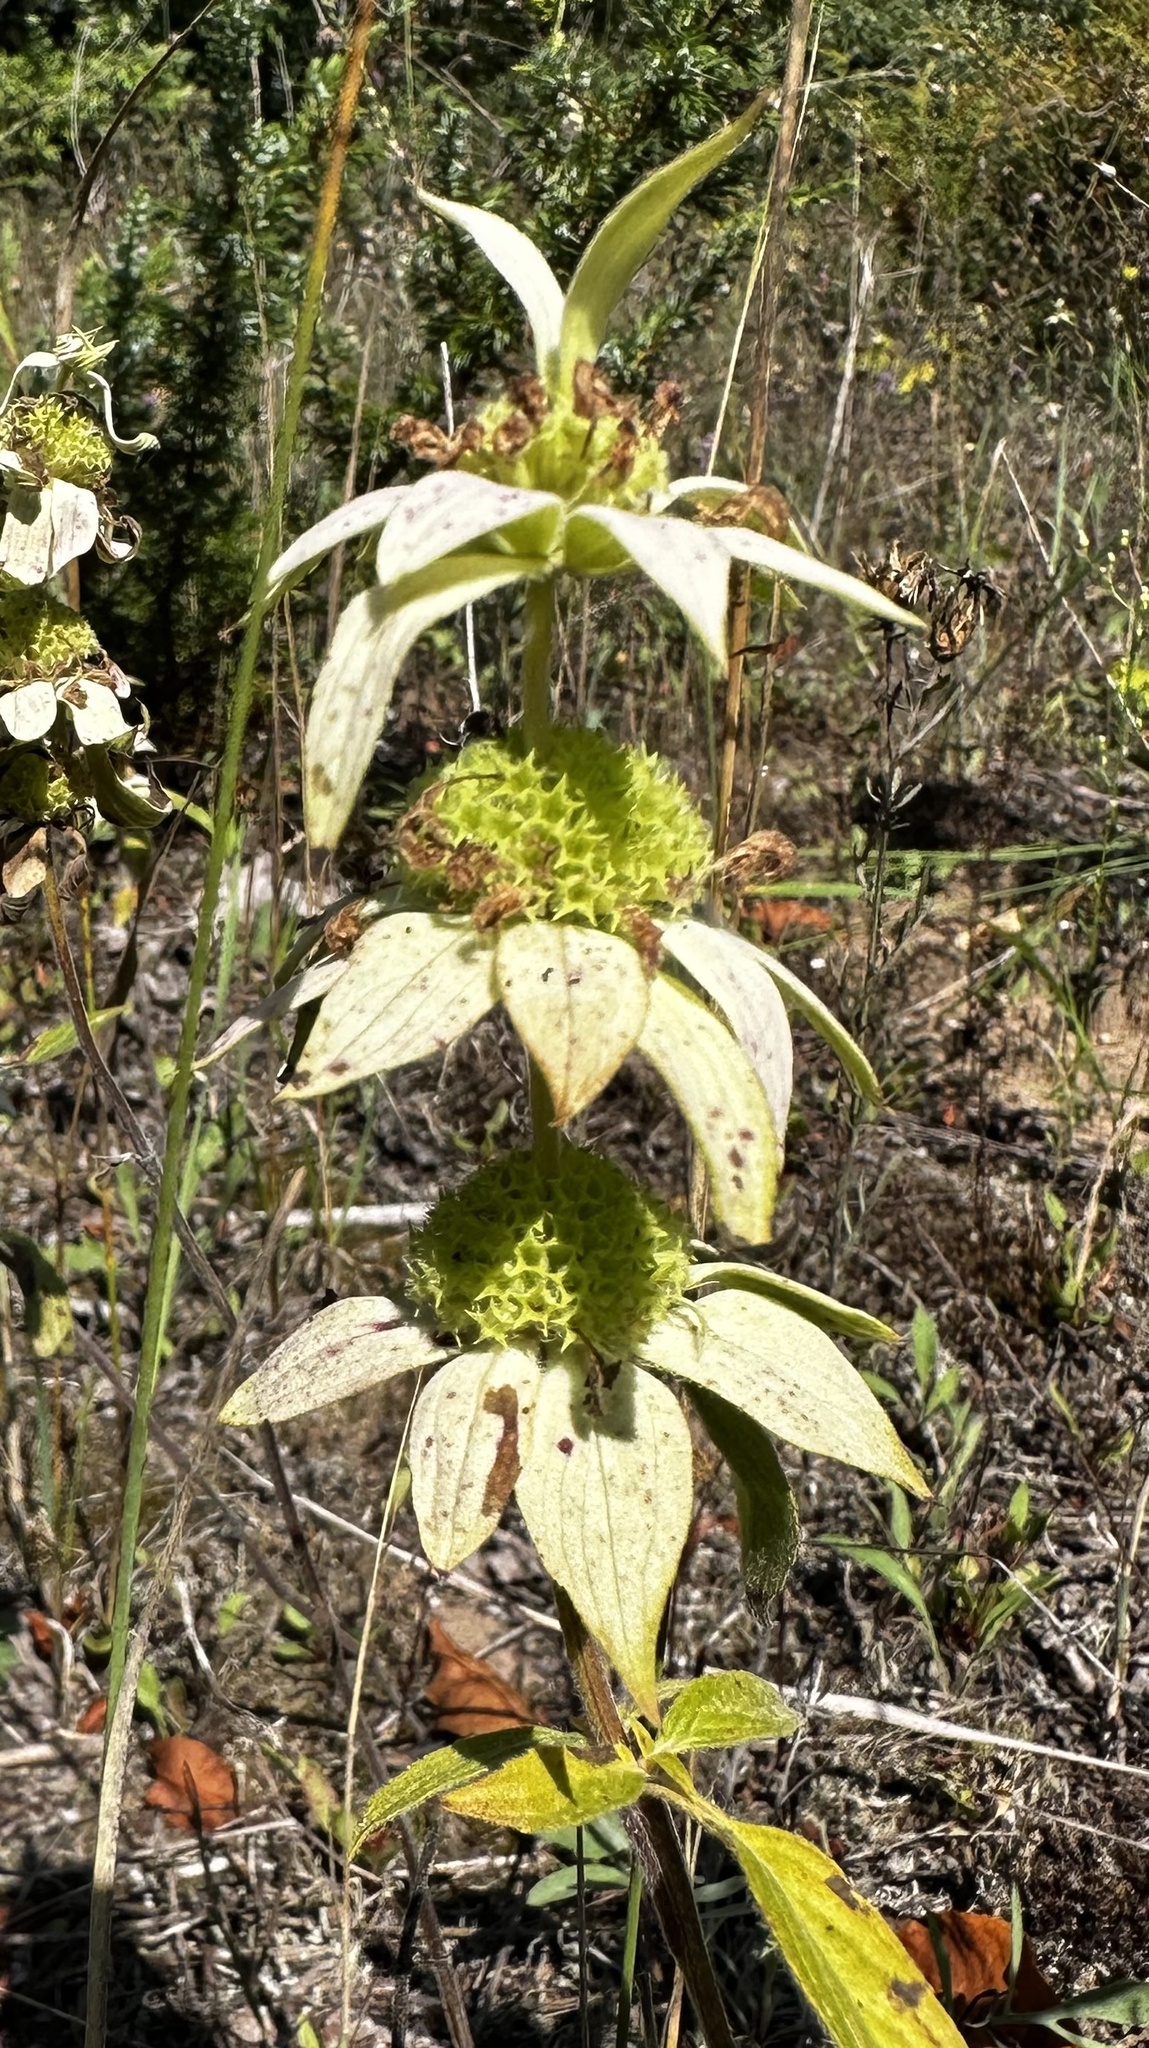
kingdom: Plantae
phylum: Tracheophyta
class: Magnoliopsida
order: Lamiales
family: Lamiaceae
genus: Monarda
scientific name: Monarda punctata
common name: Dotted monarda
